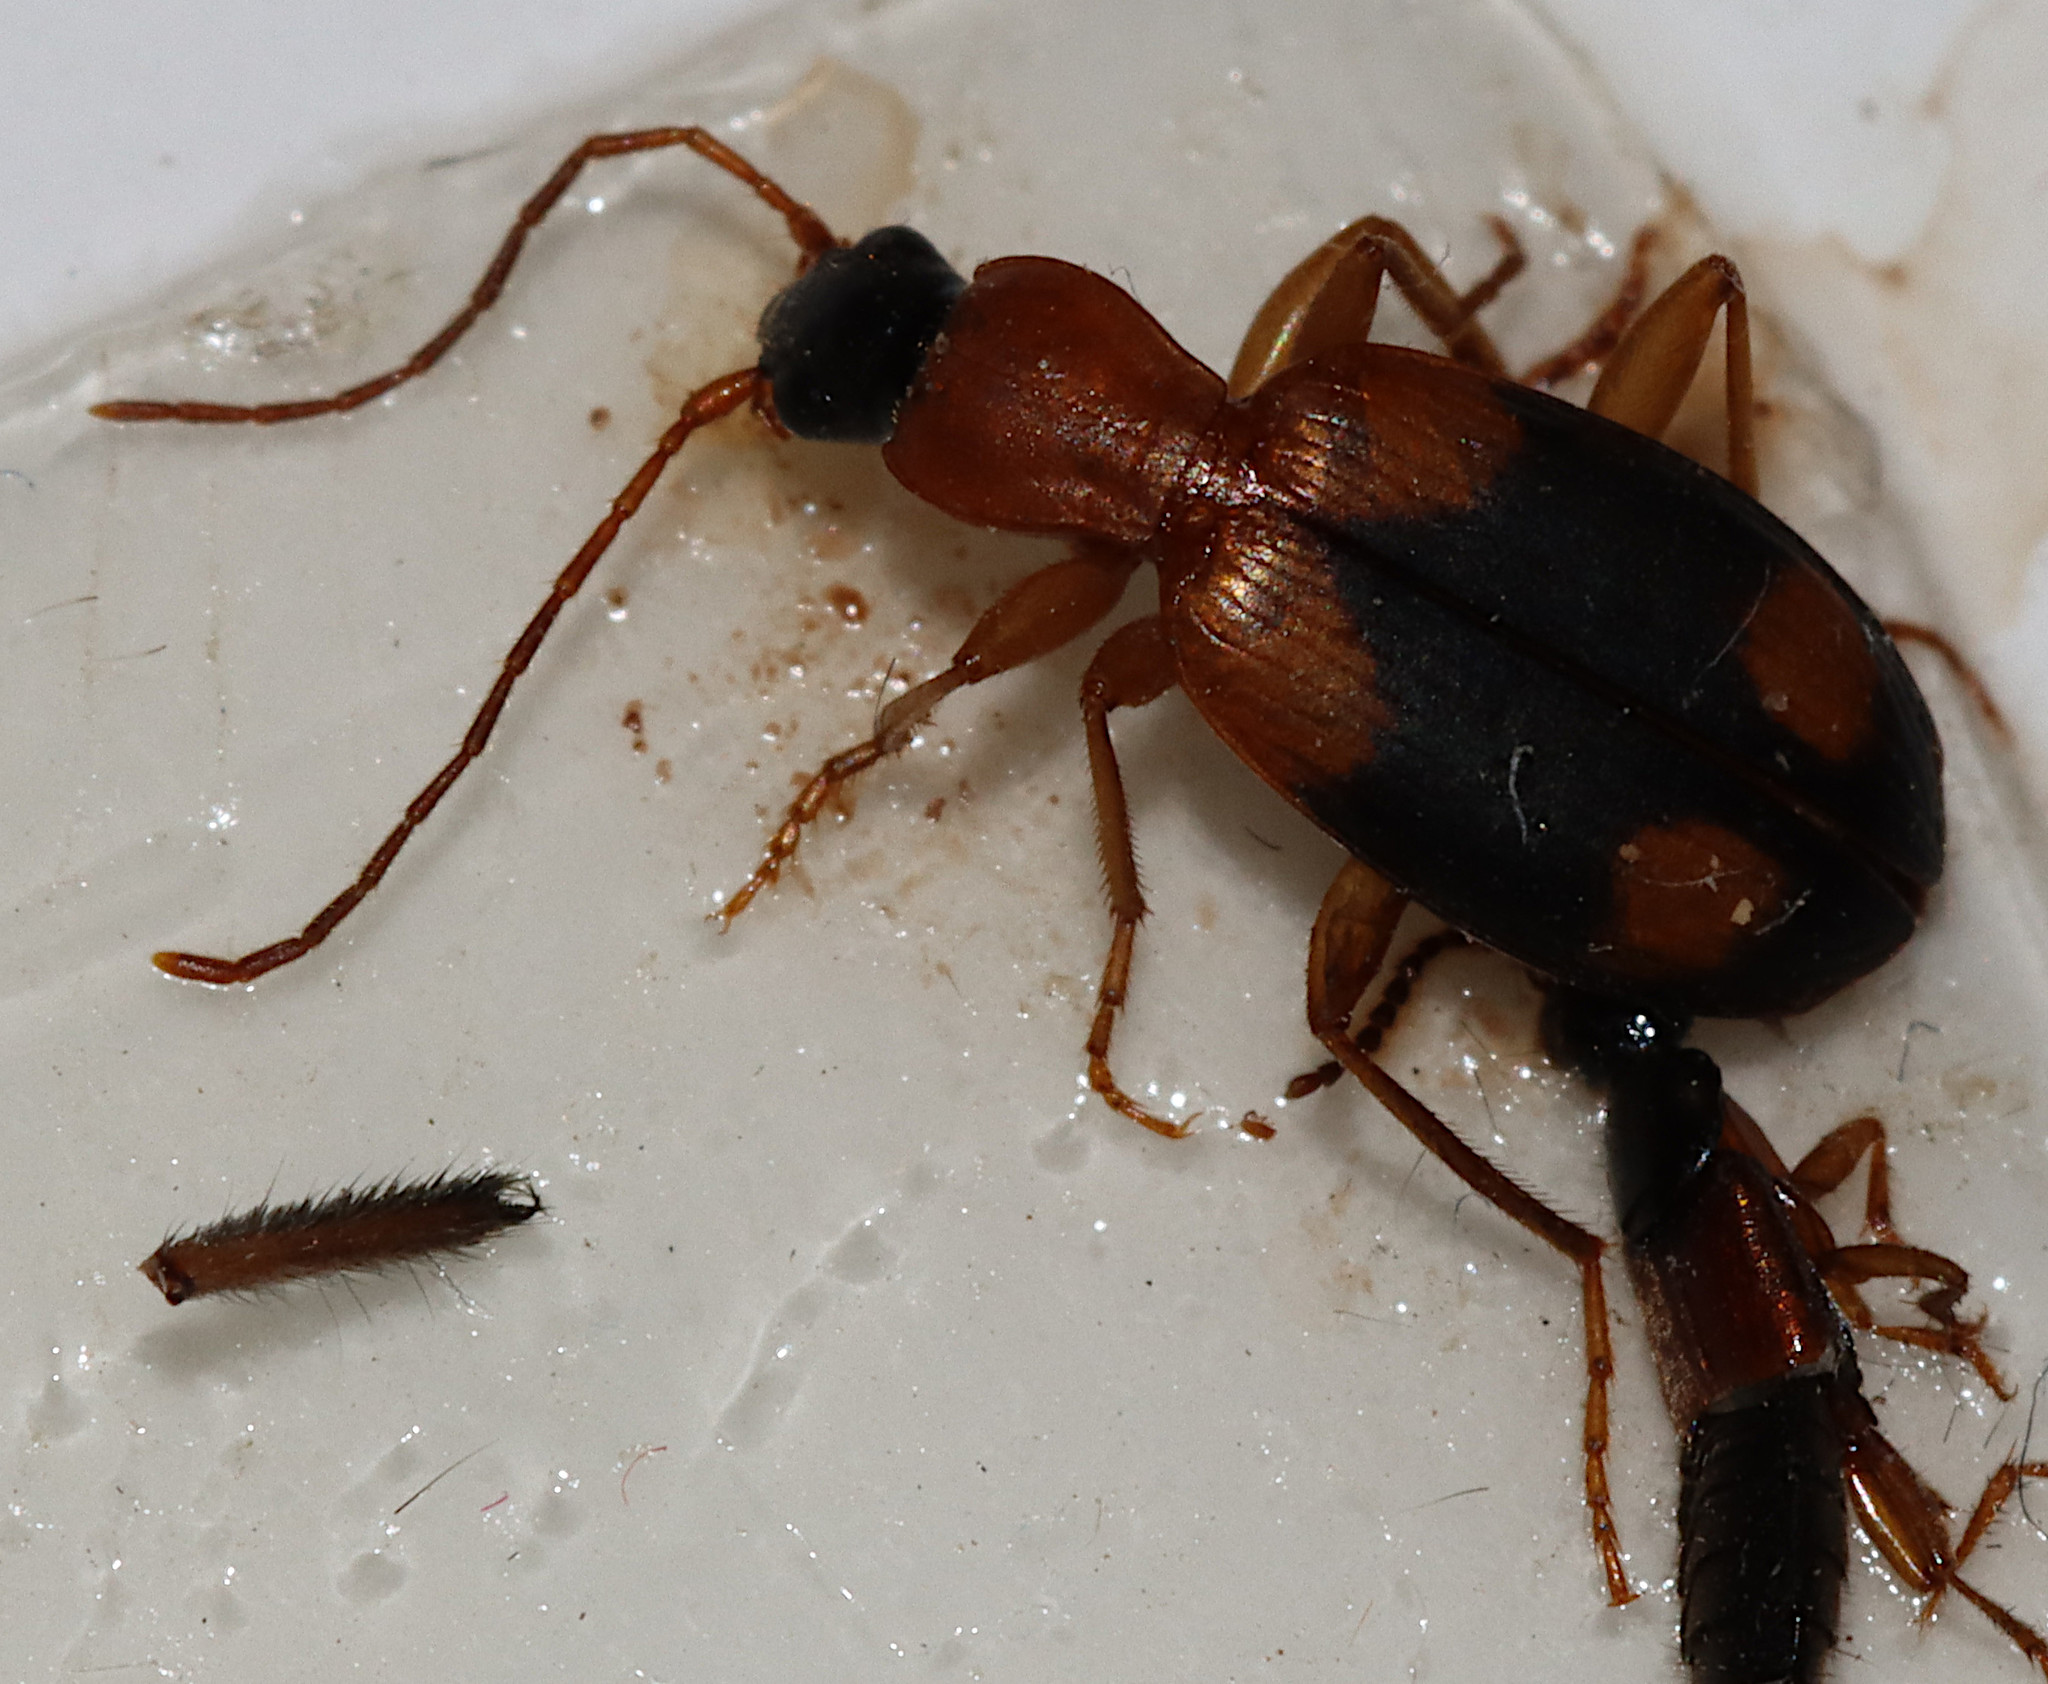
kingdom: Animalia
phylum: Arthropoda
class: Insecta
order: Coleoptera
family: Carabidae
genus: Agonum
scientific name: Agonum quadrimaculatum
